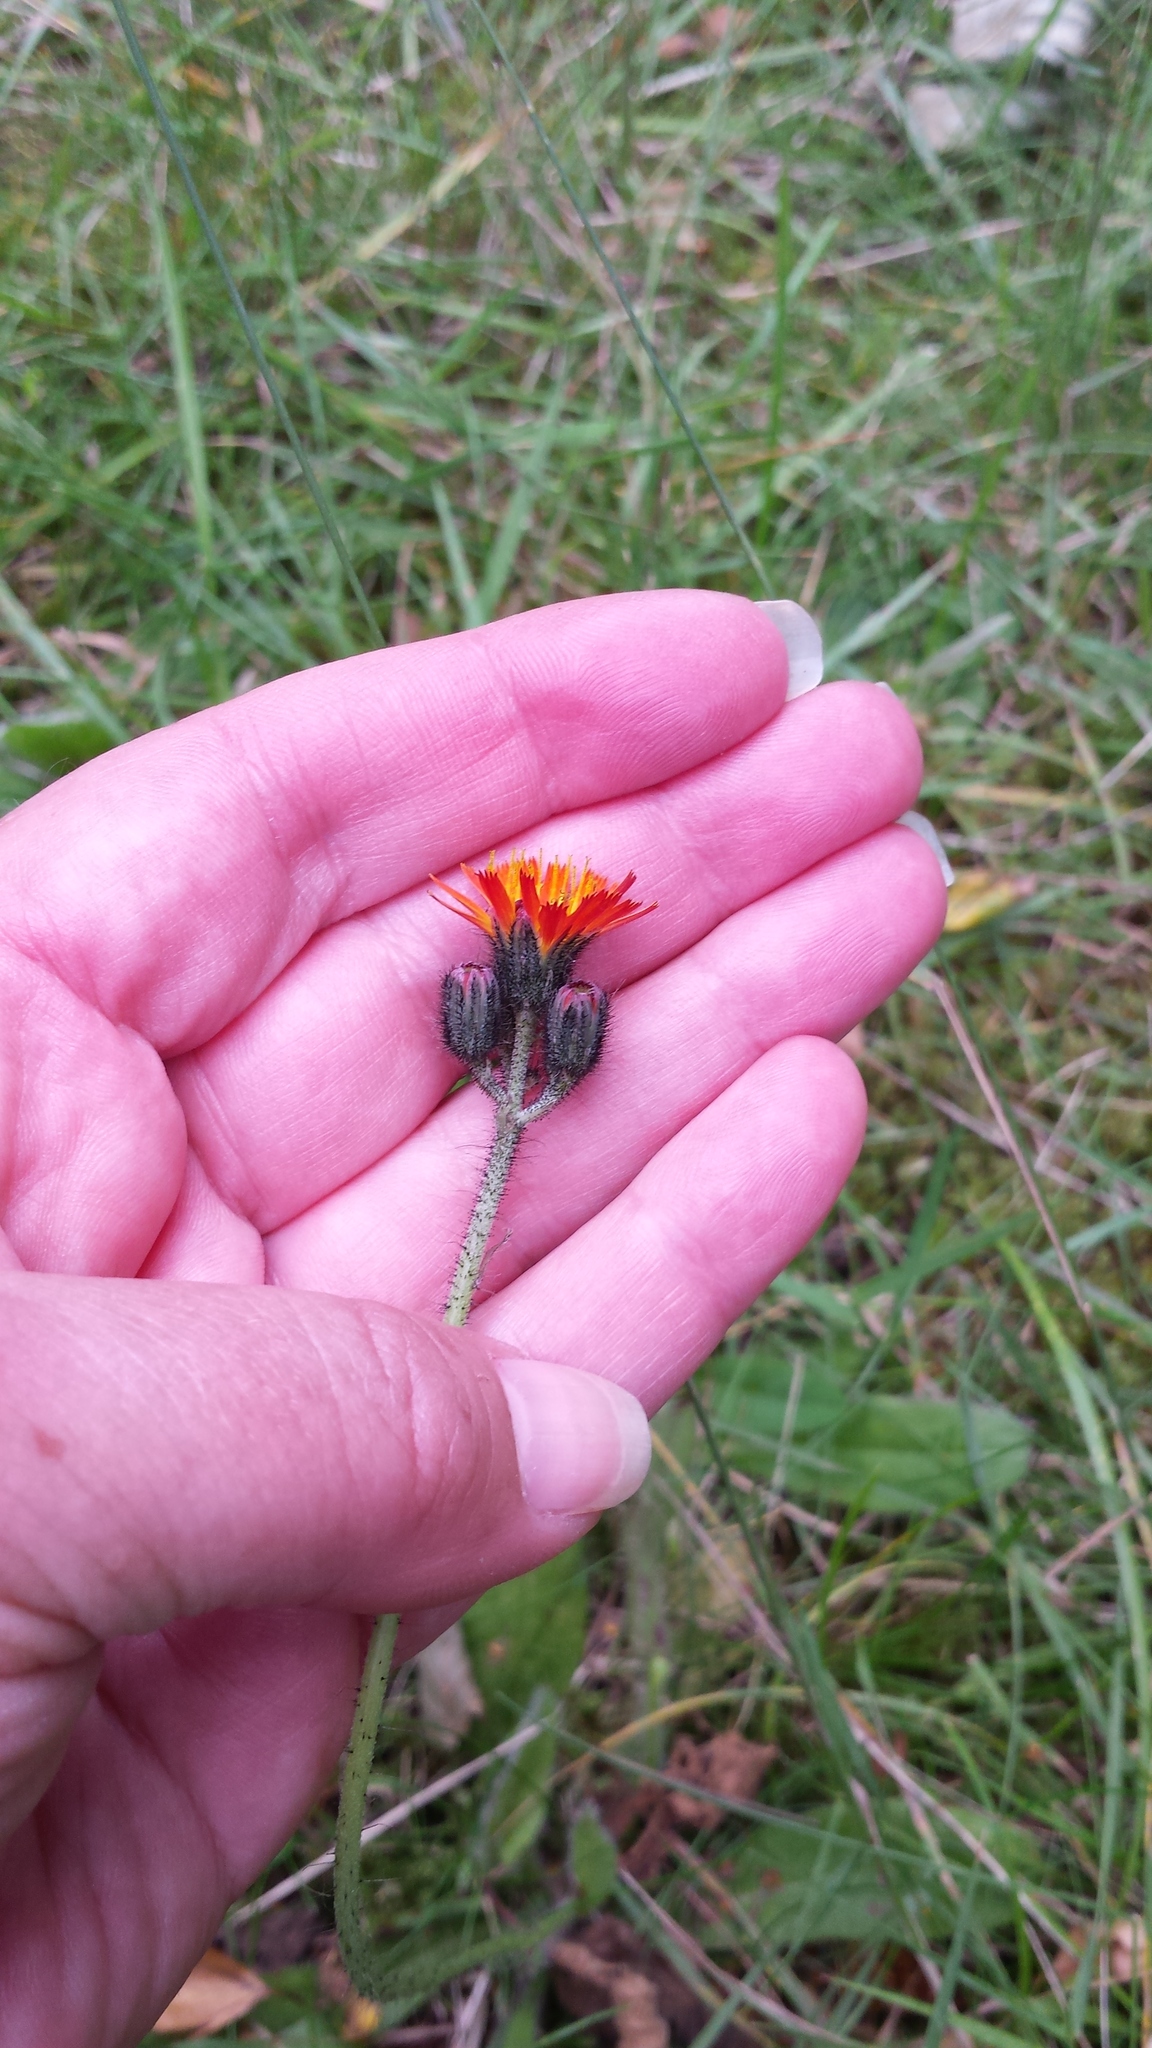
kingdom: Plantae
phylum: Tracheophyta
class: Magnoliopsida
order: Asterales
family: Asteraceae
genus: Pilosella
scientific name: Pilosella aurantiaca
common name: Fox-and-cubs
